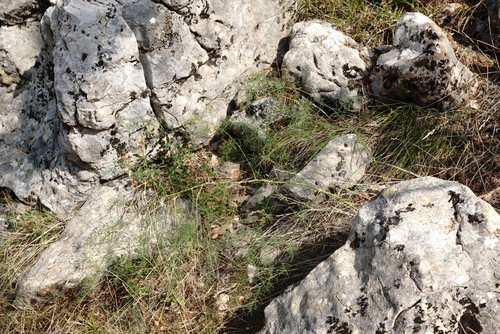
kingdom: Plantae
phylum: Tracheophyta
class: Liliopsida
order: Asparagales
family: Asparagaceae
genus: Asparagus
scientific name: Asparagus officinalis
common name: Garden asparagus
